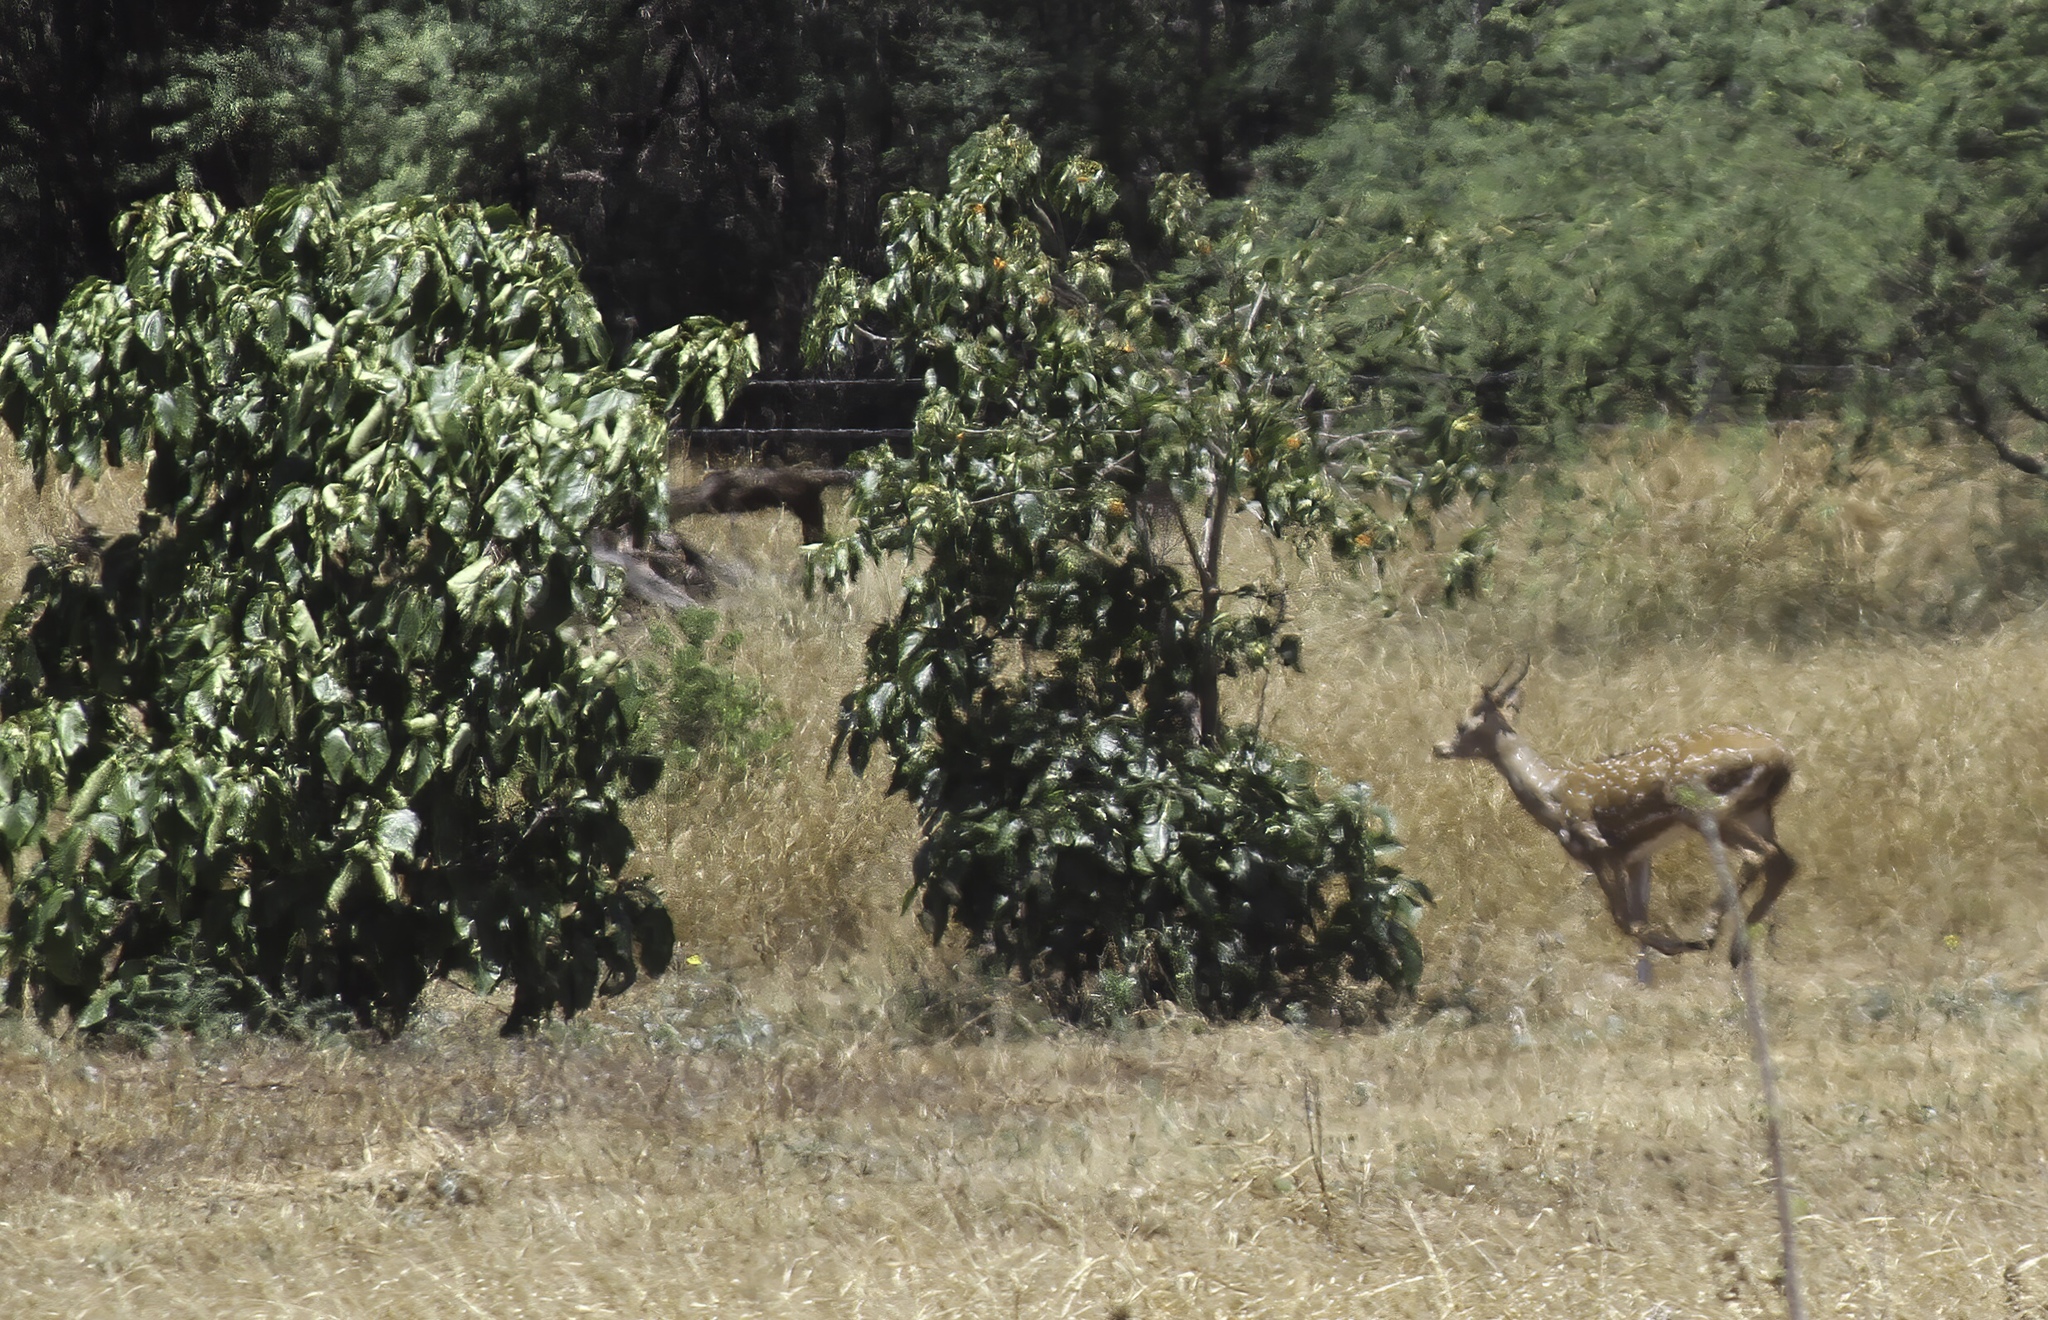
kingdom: Animalia
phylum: Chordata
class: Mammalia
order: Artiodactyla
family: Cervidae
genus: Axis
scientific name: Axis axis
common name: Chital
